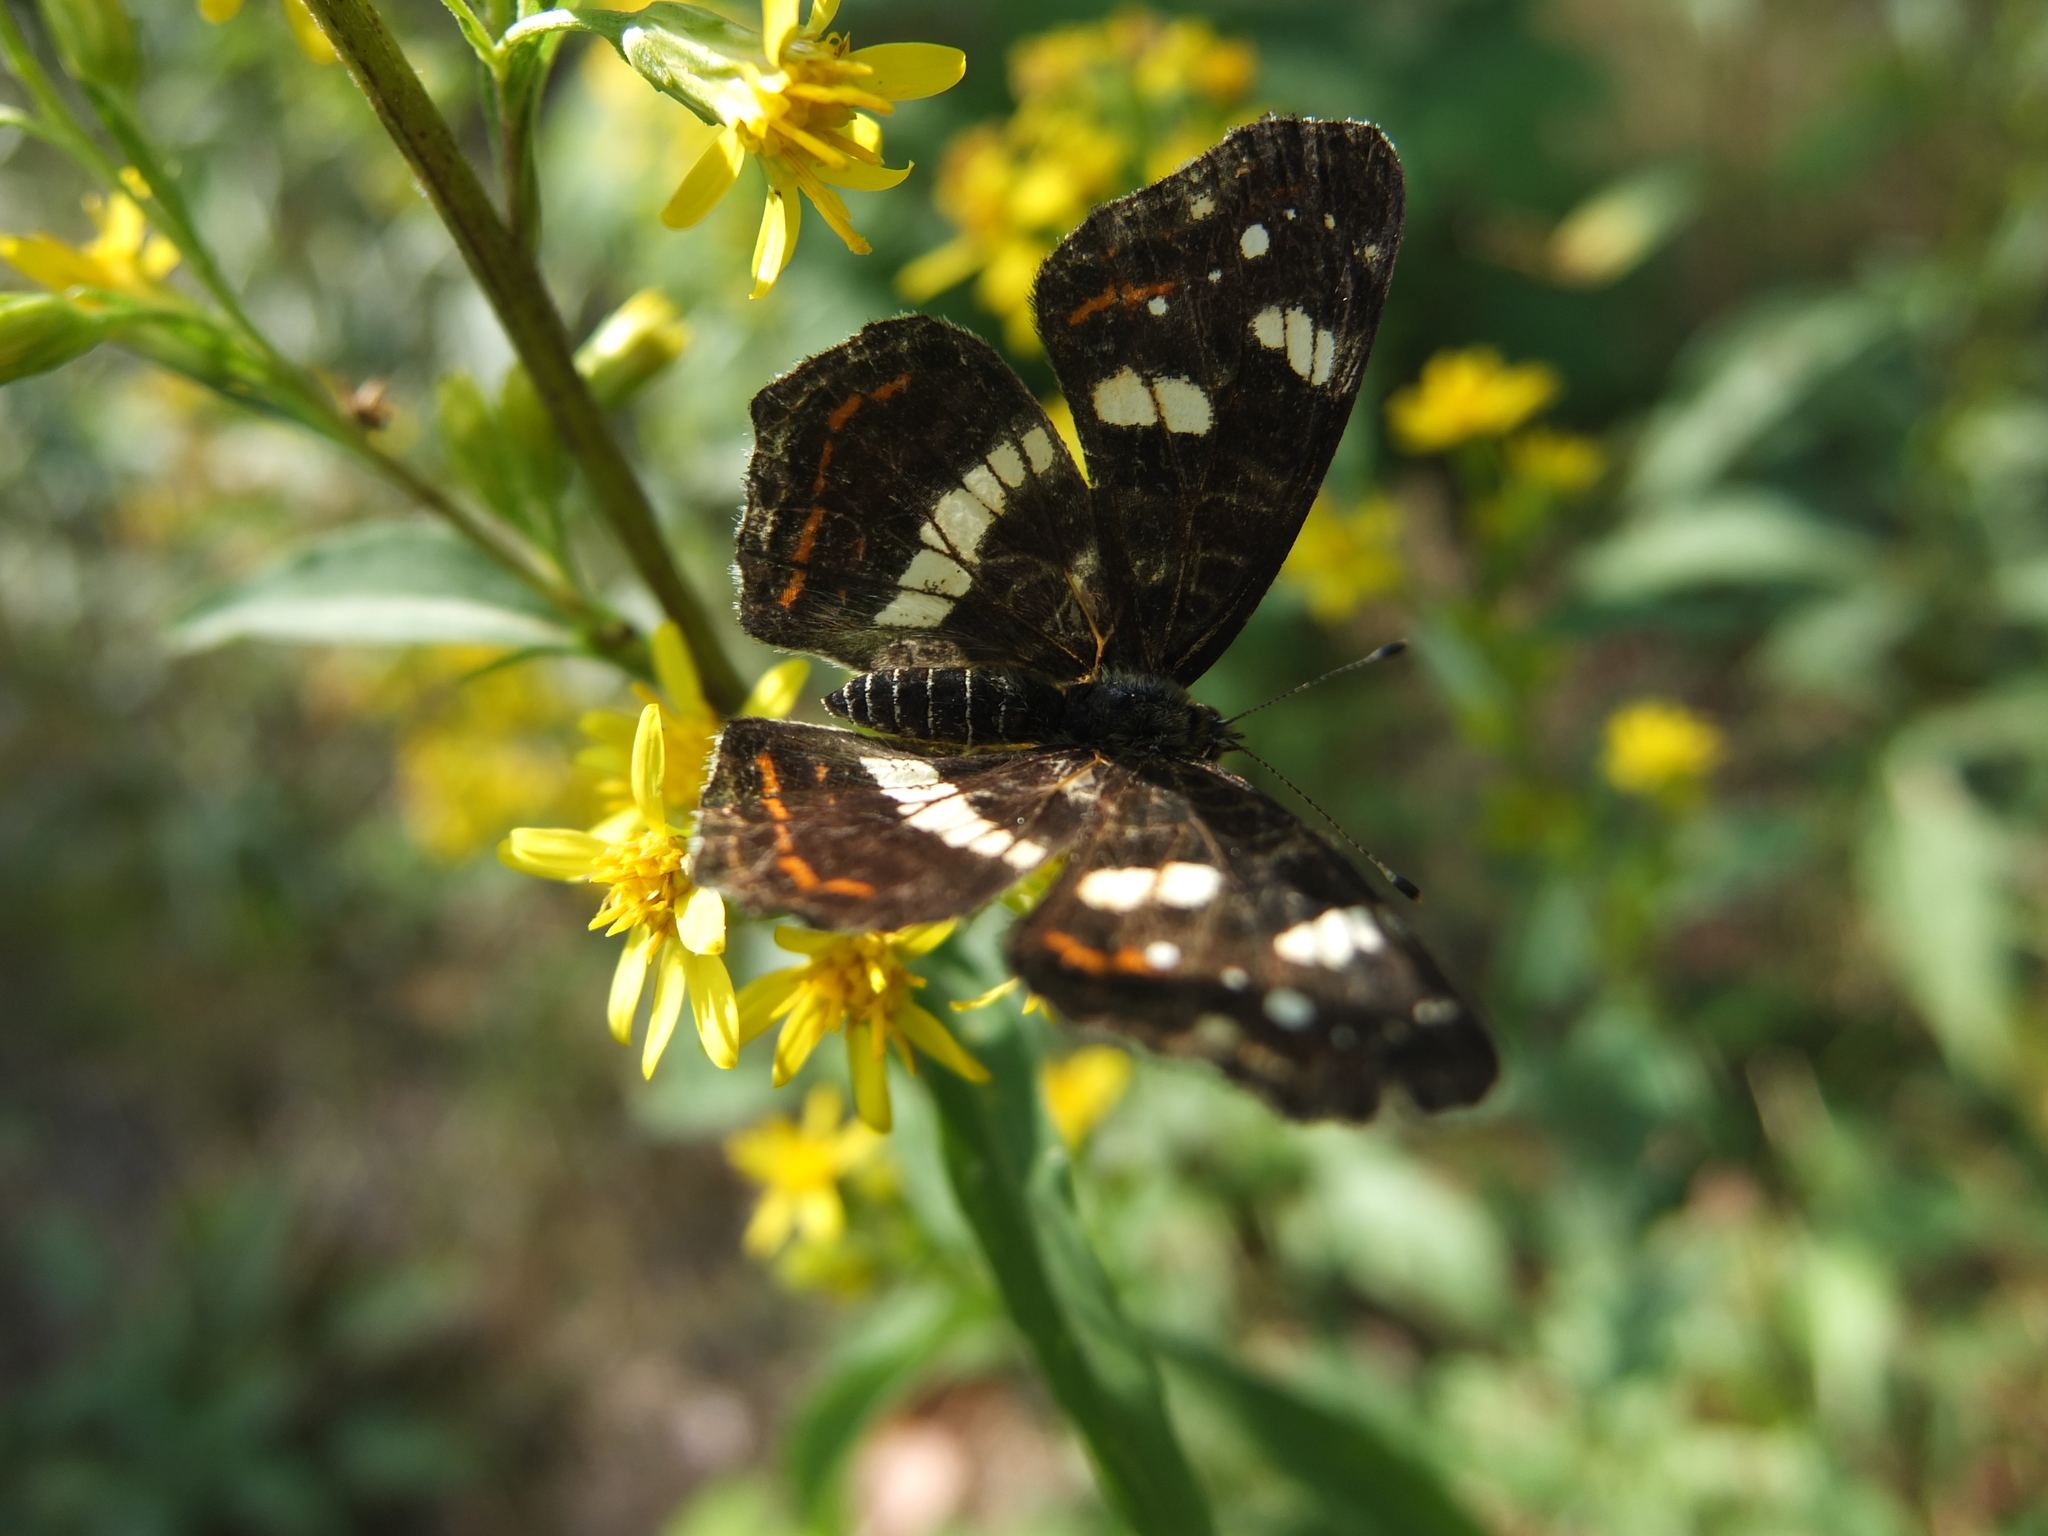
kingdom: Animalia
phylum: Arthropoda
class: Insecta
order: Lepidoptera
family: Nymphalidae
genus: Araschnia
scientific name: Araschnia levana
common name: Map butterfly
